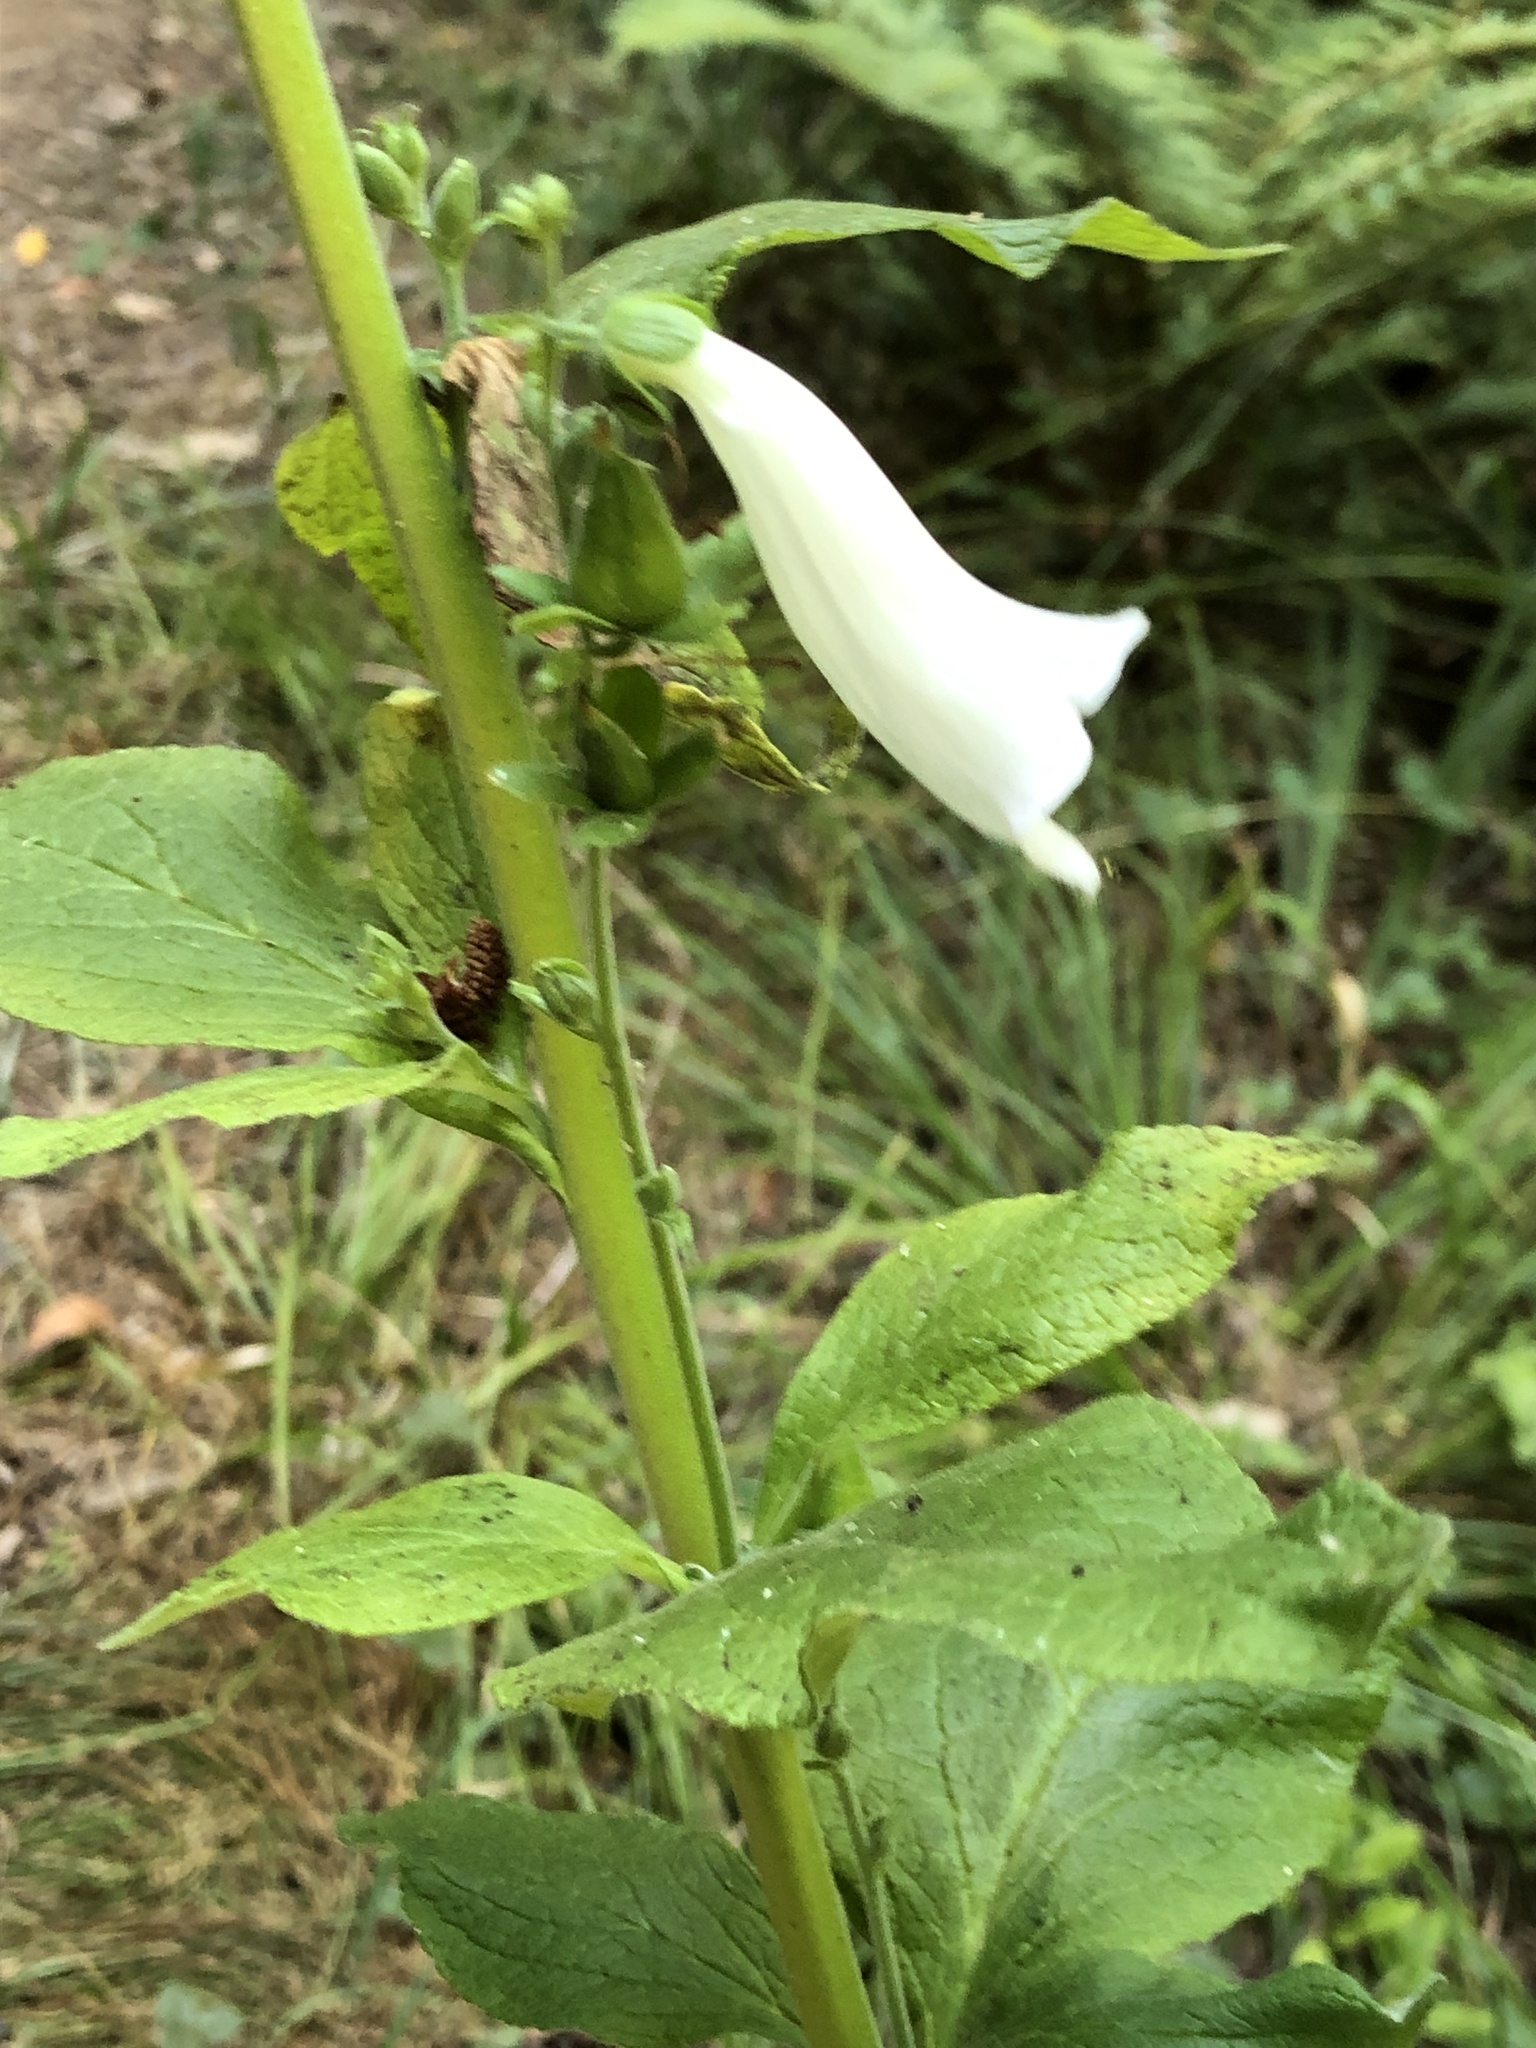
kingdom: Plantae
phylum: Tracheophyta
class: Magnoliopsida
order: Lamiales
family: Plantaginaceae
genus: Digitalis
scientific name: Digitalis purpurea
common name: Foxglove
